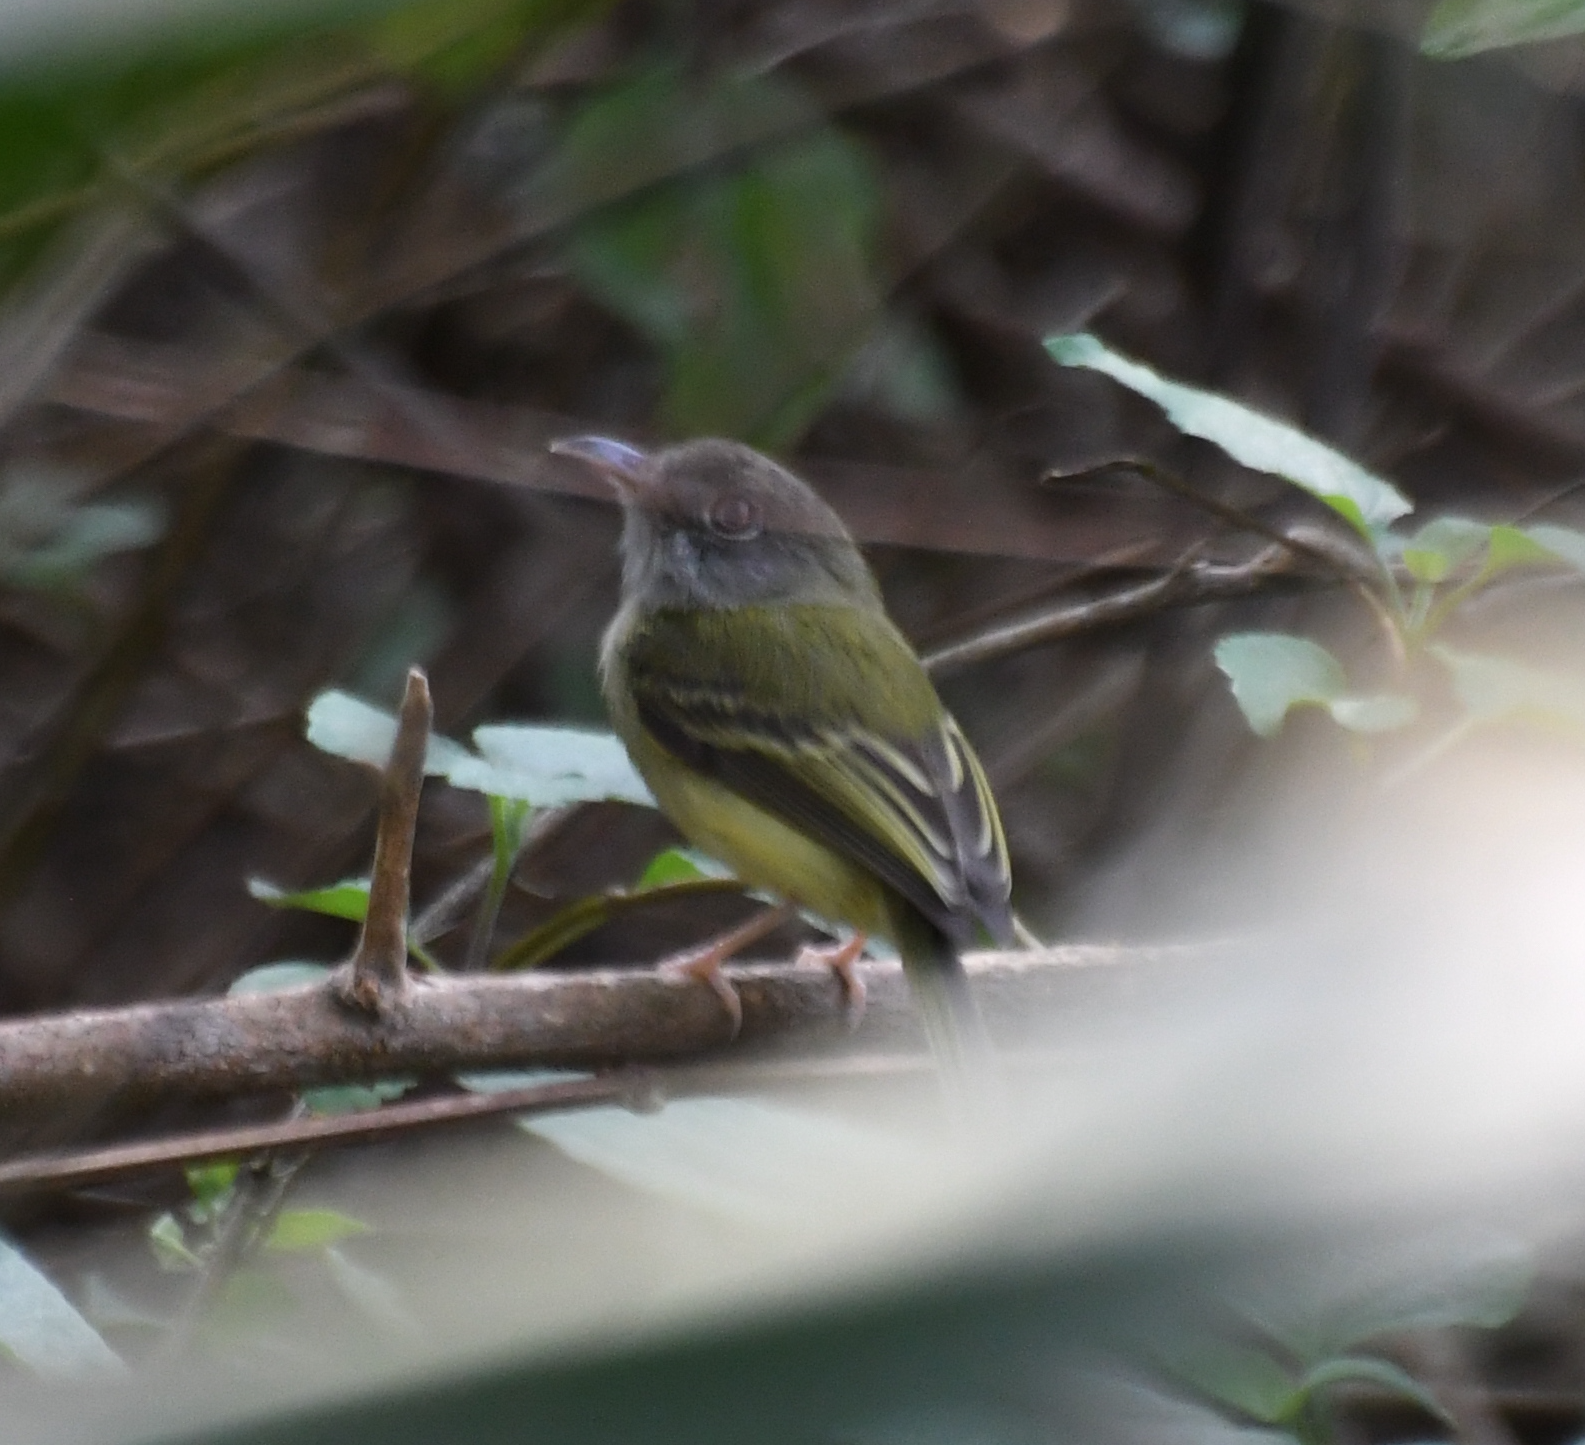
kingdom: Animalia
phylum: Chordata
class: Aves
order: Passeriformes
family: Tyrannidae
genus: Oncostoma
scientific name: Oncostoma cinereigulare
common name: Northern bentbill
